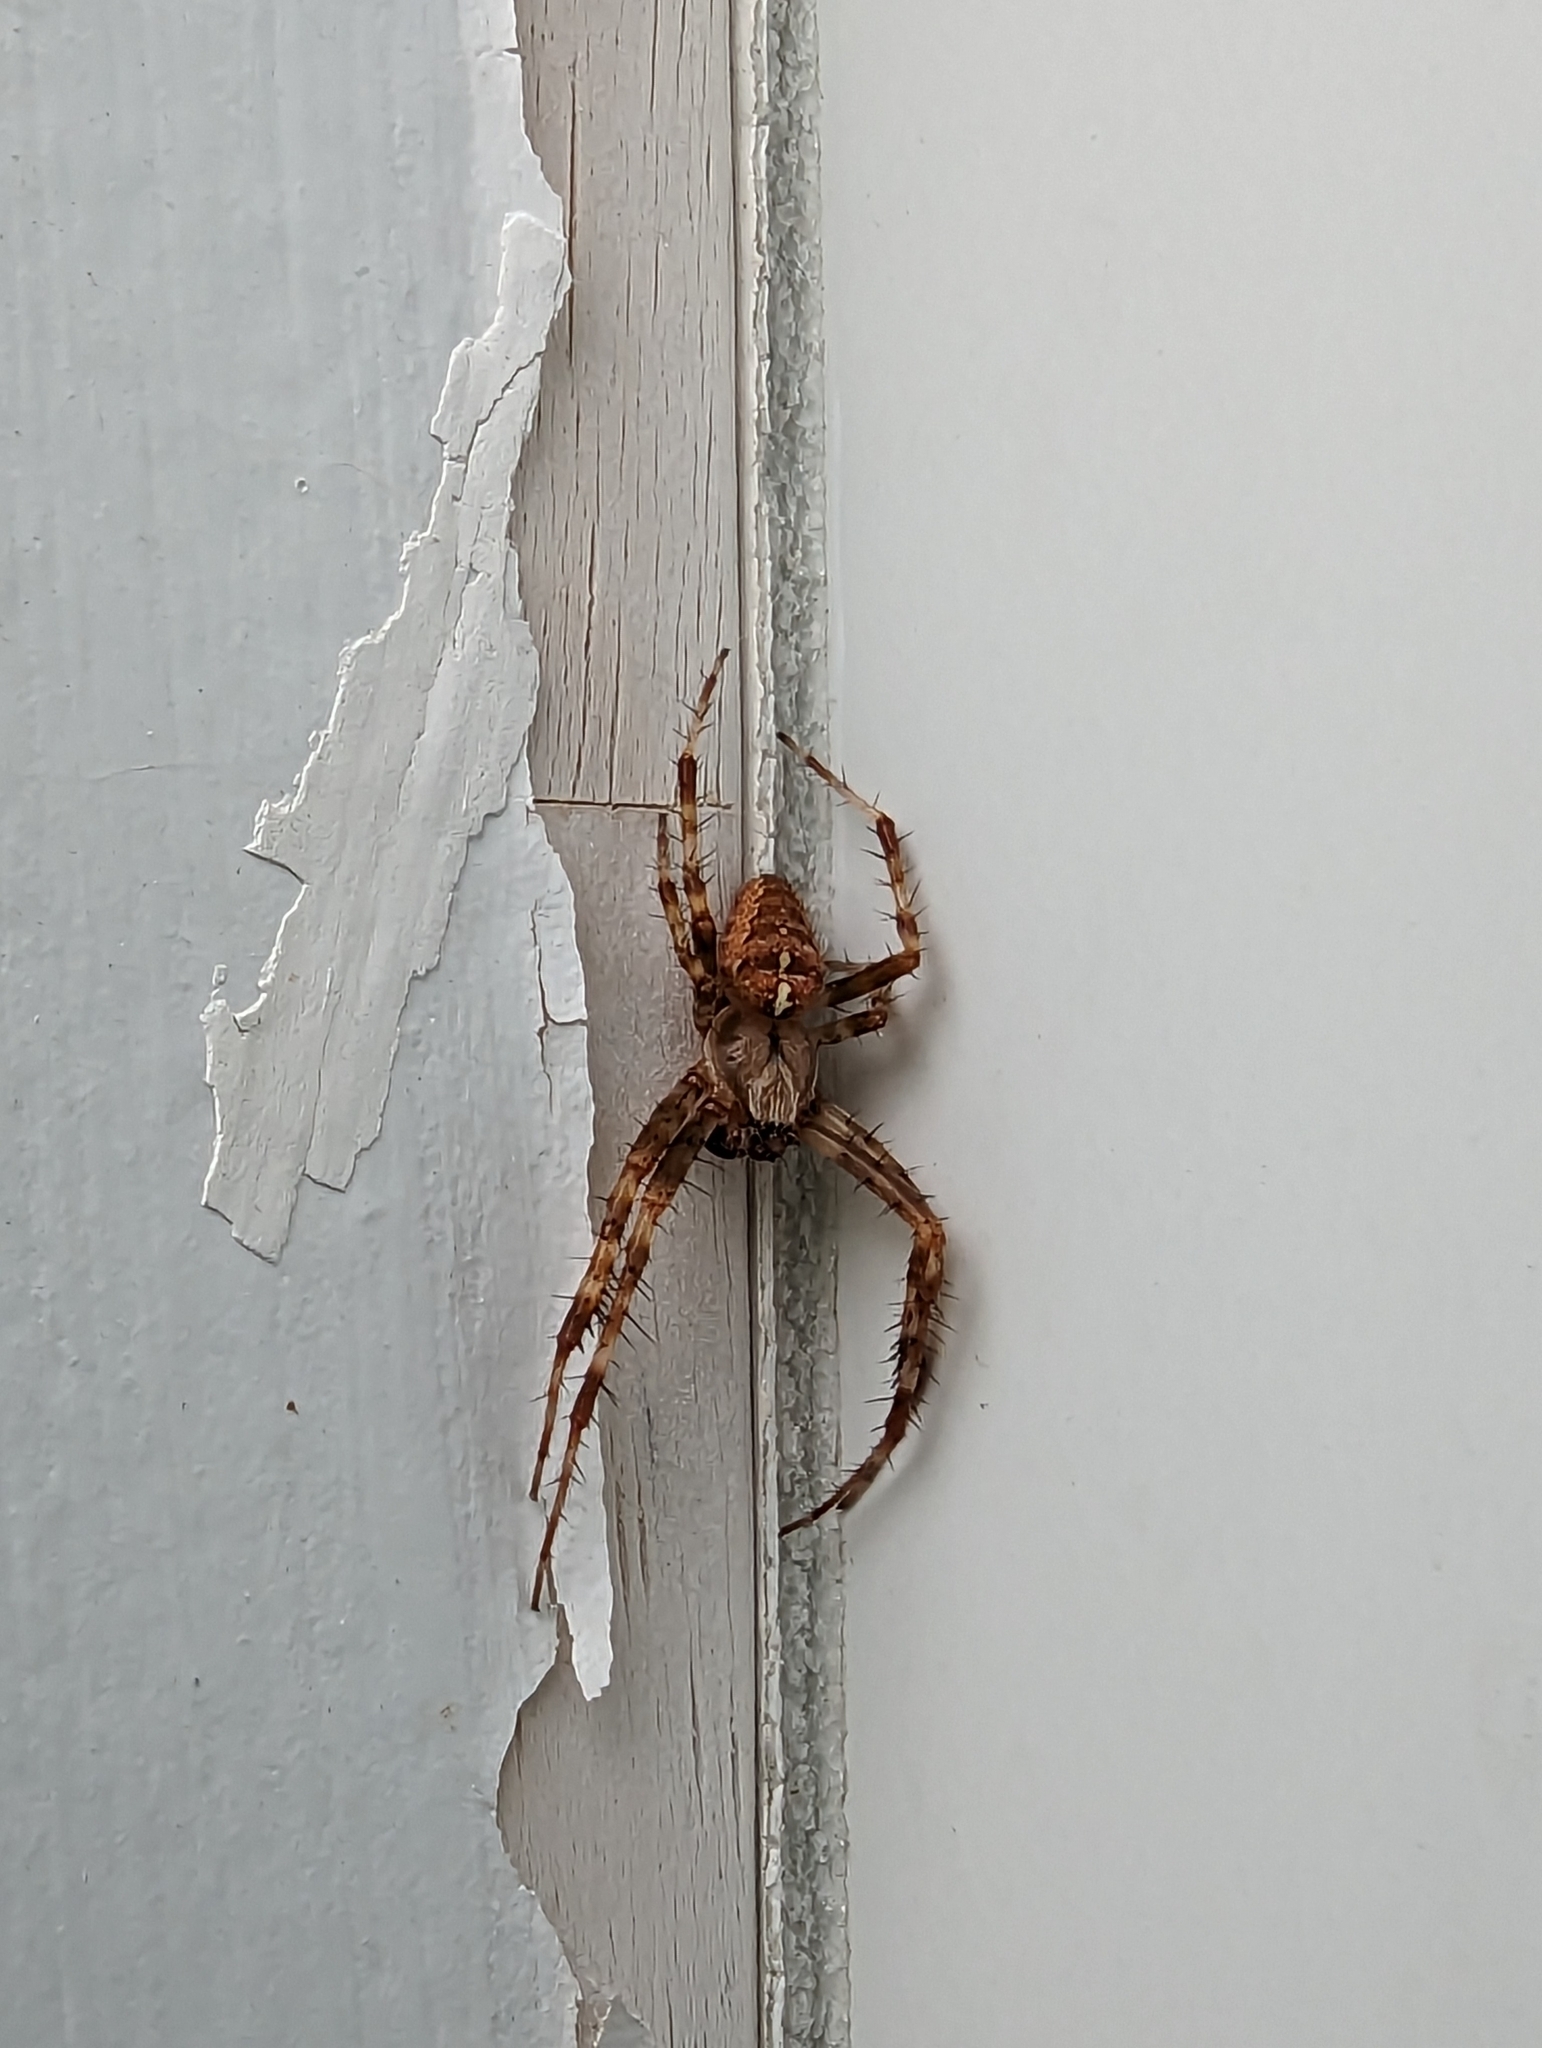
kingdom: Animalia
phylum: Arthropoda
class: Arachnida
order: Araneae
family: Araneidae
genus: Araneus
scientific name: Araneus diadematus
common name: Cross orbweaver
